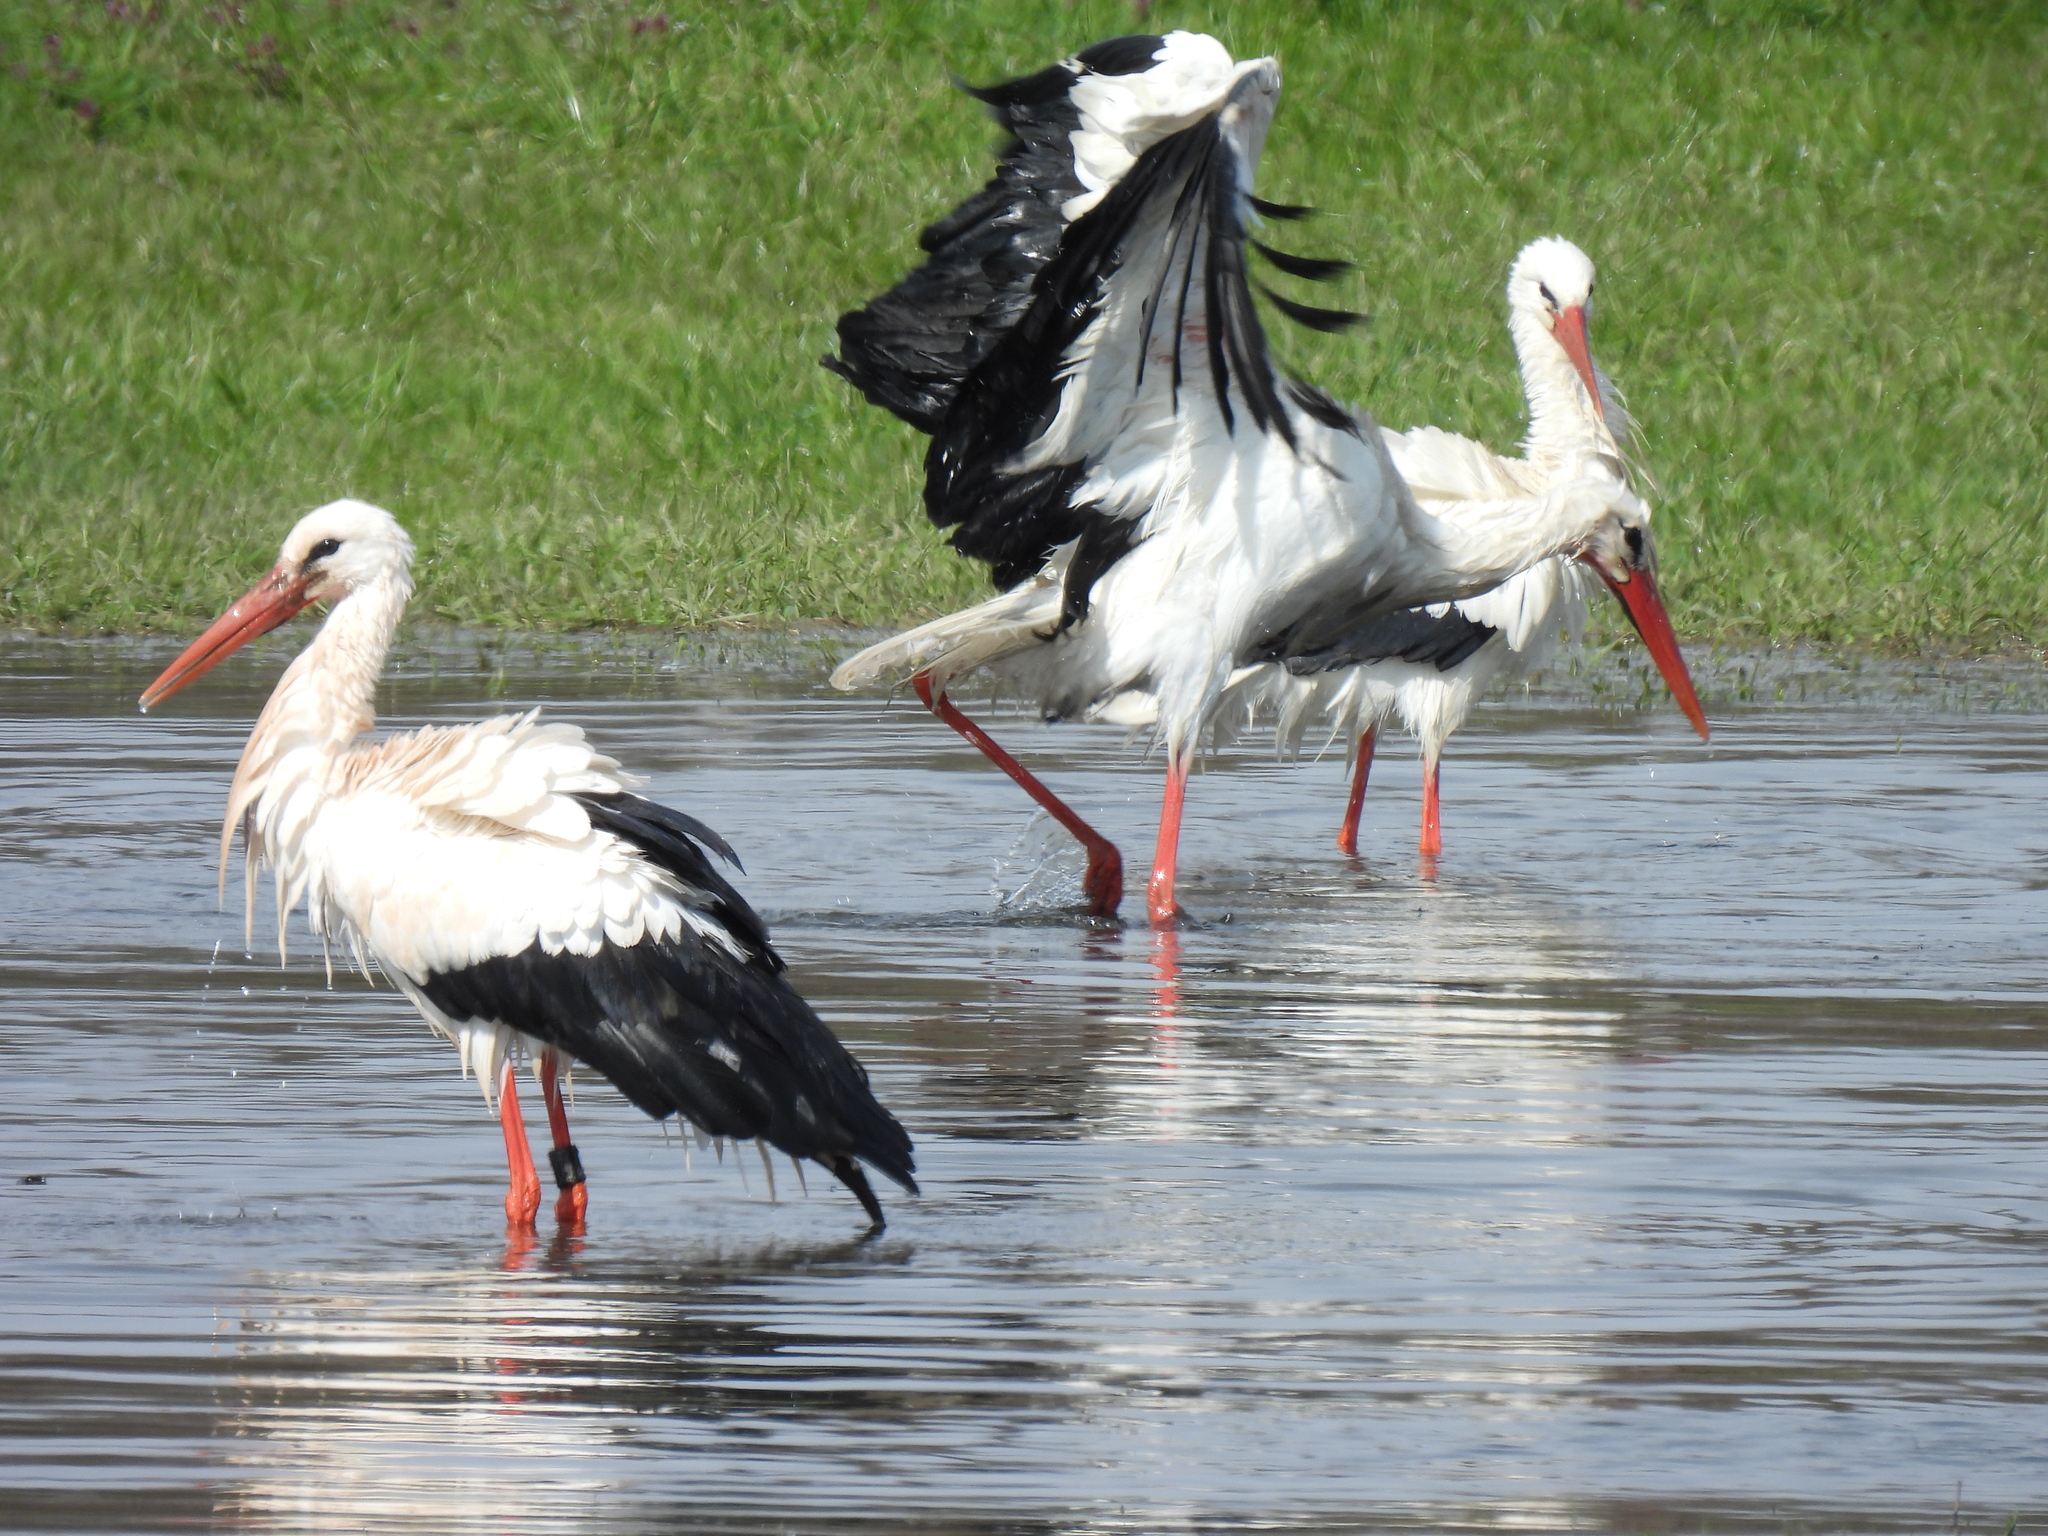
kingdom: Animalia
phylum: Chordata
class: Aves
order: Ciconiiformes
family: Ciconiidae
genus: Ciconia
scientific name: Ciconia ciconia
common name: White stork
